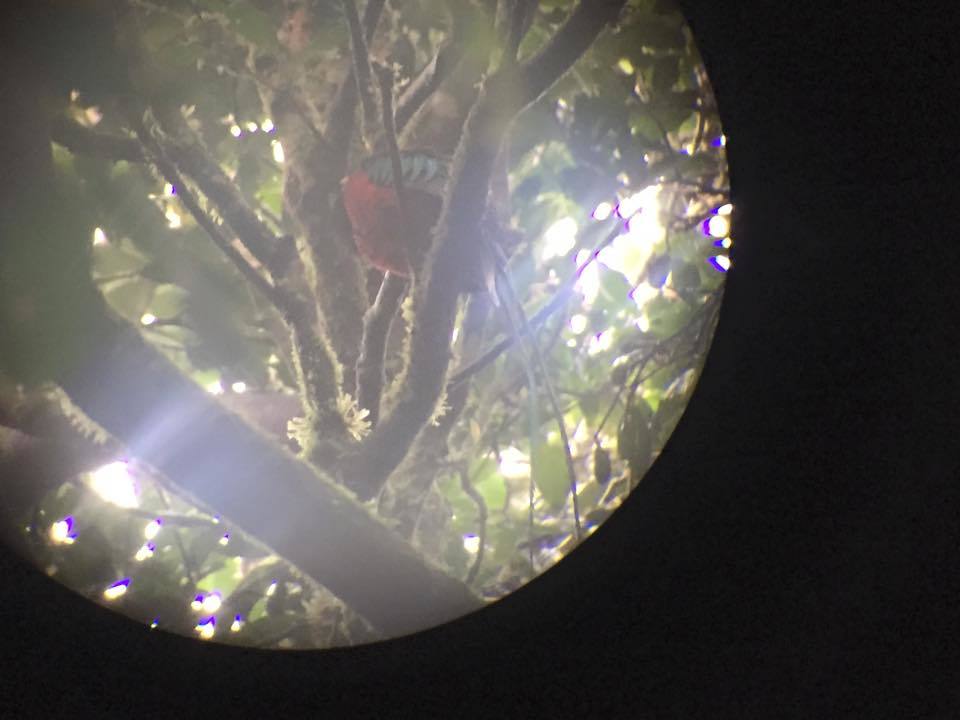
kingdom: Animalia
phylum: Chordata
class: Aves
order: Trogoniformes
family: Trogonidae
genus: Pharomachrus
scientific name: Pharomachrus mocinno
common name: Resplendent quetzal
